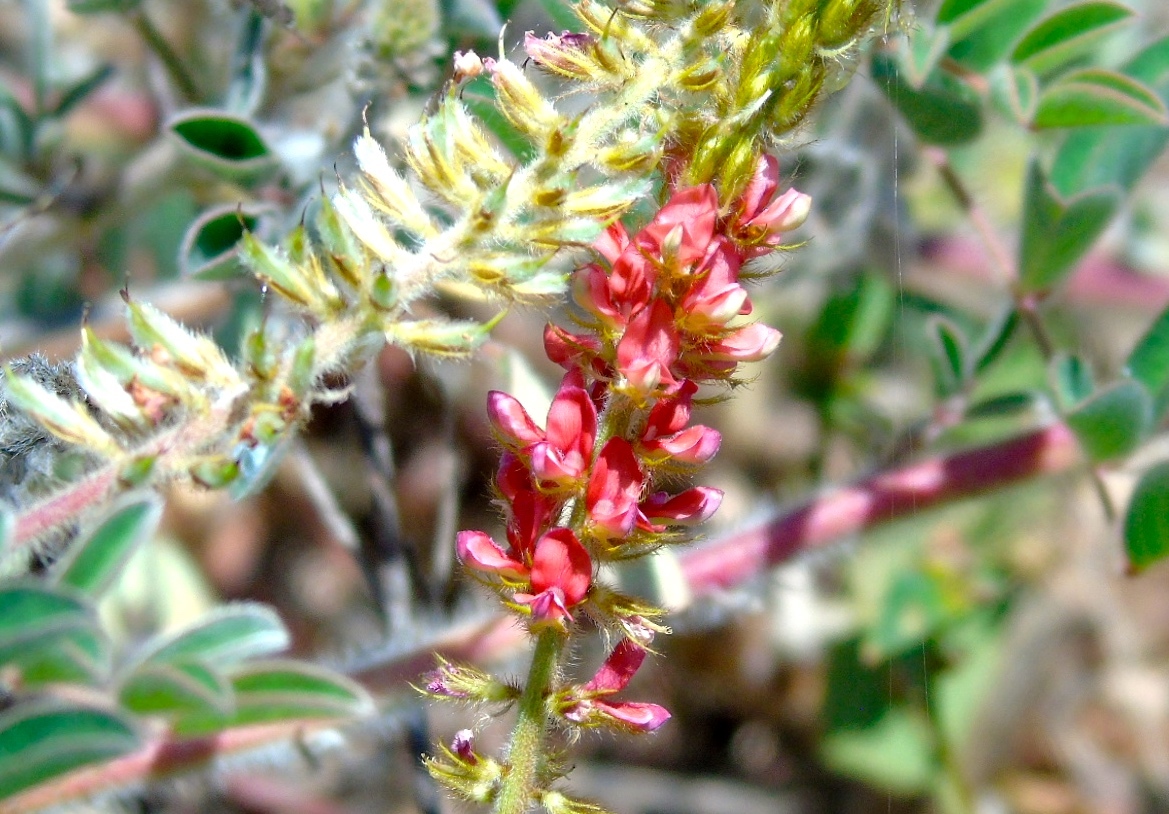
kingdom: Plantae
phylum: Tracheophyta
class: Magnoliopsida
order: Fabales
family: Fabaceae
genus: Indigofera
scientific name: Indigofera hirsuta
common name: Hairy indigo
